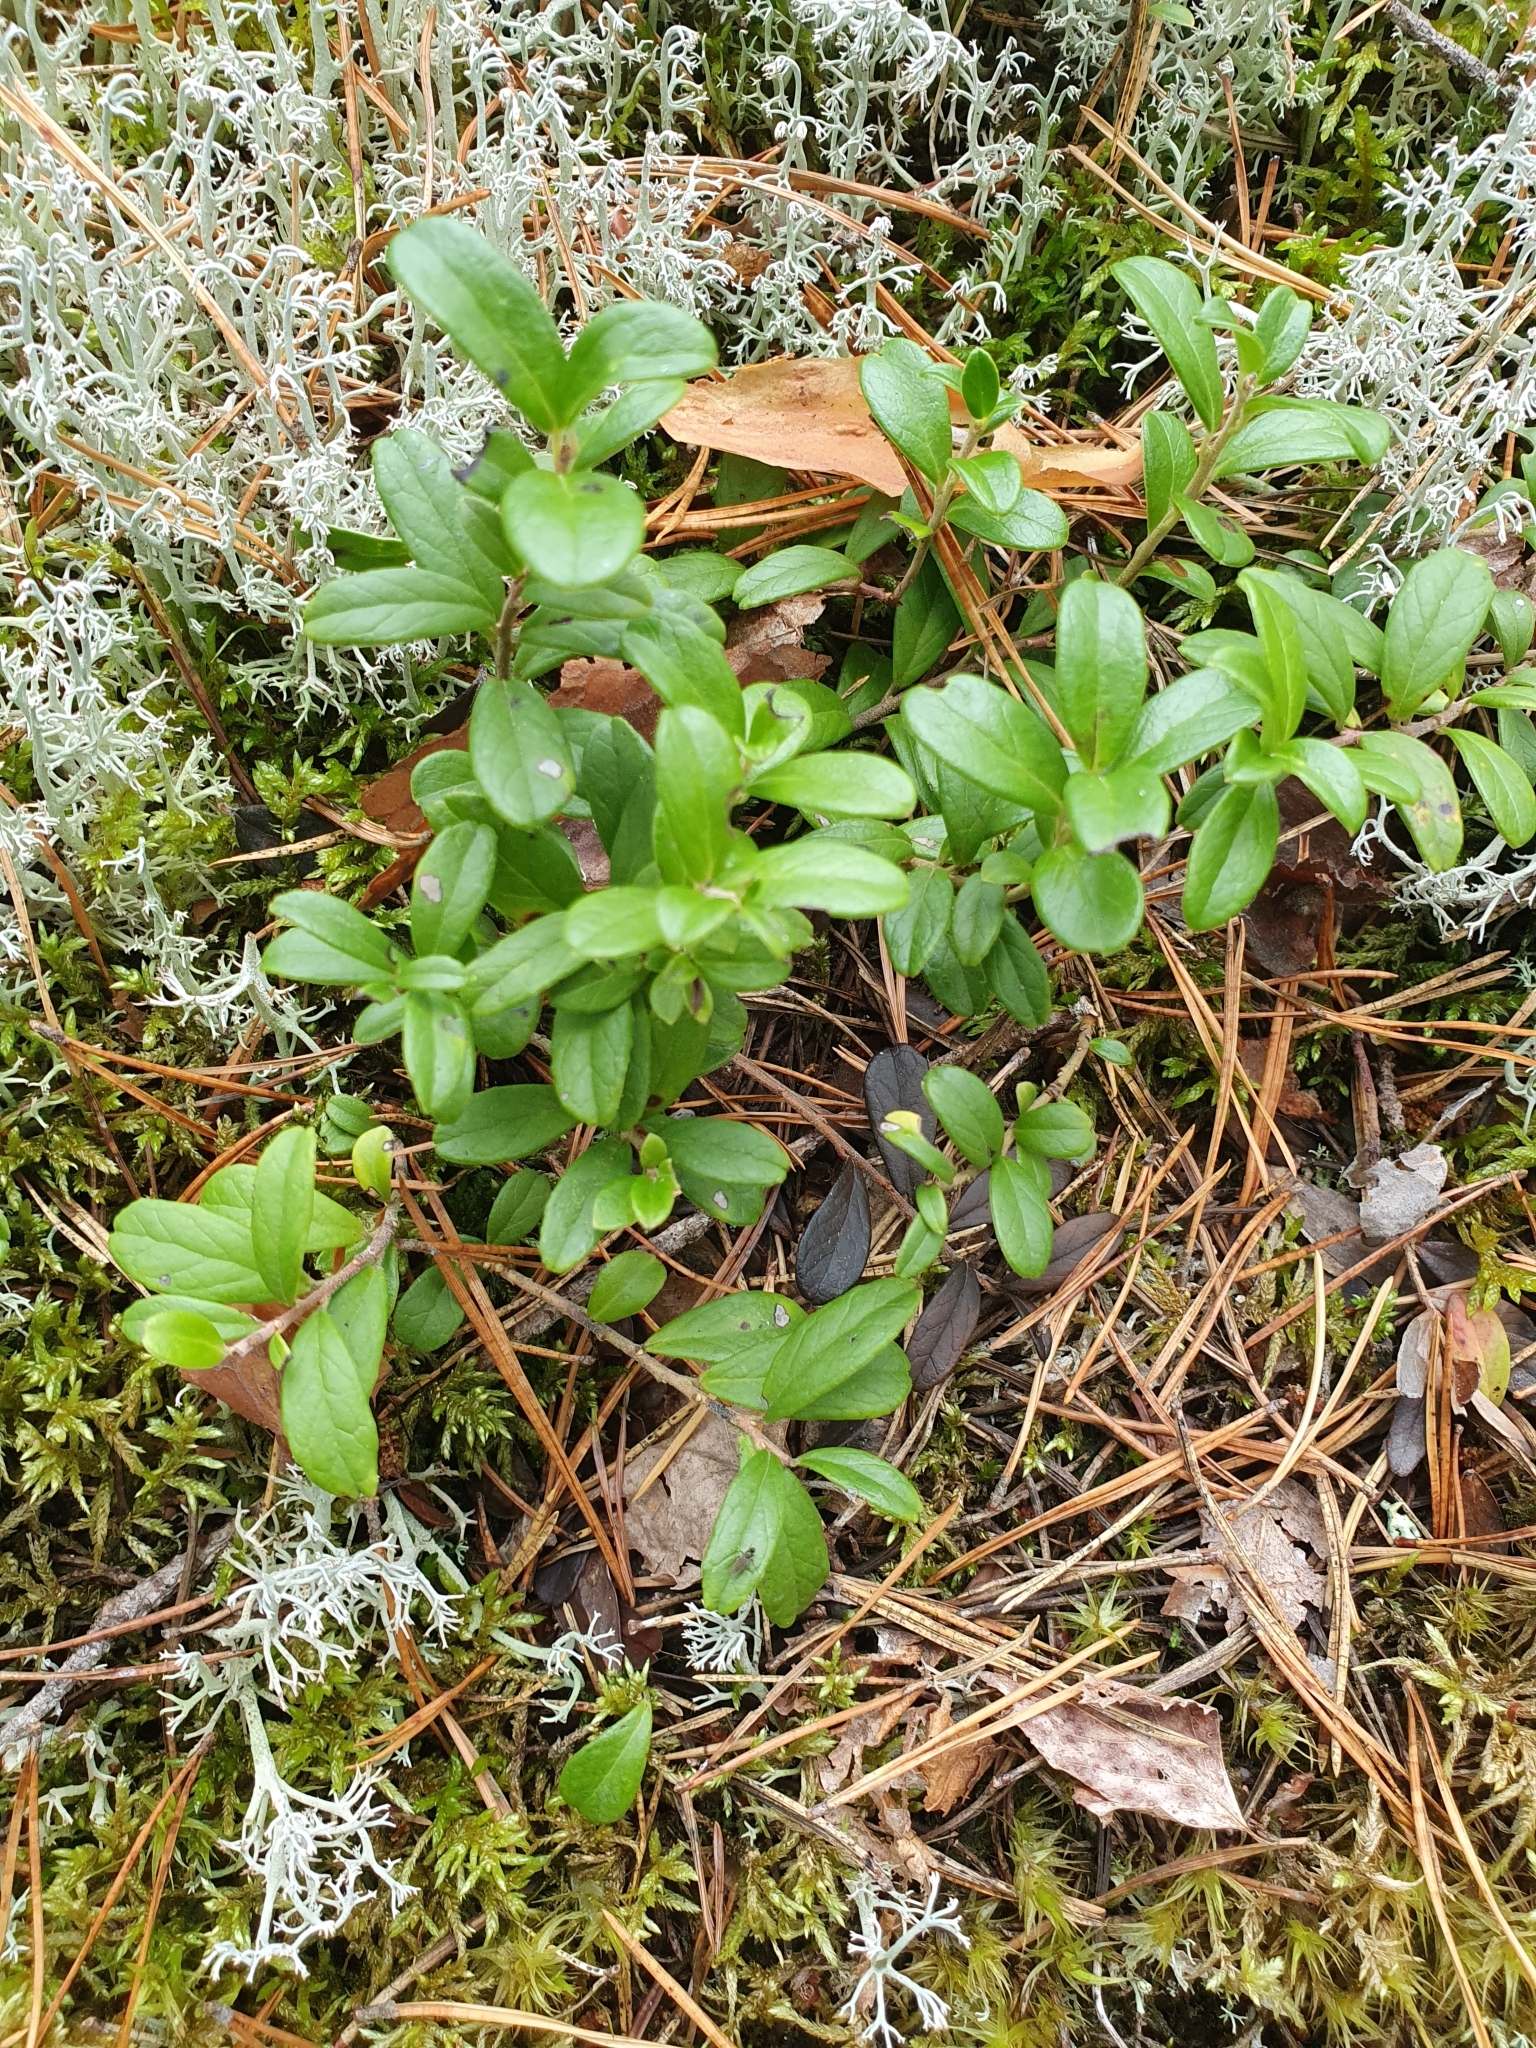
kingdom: Plantae
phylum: Tracheophyta
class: Magnoliopsida
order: Ericales
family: Ericaceae
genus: Vaccinium
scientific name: Vaccinium vitis-idaea
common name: Cowberry
